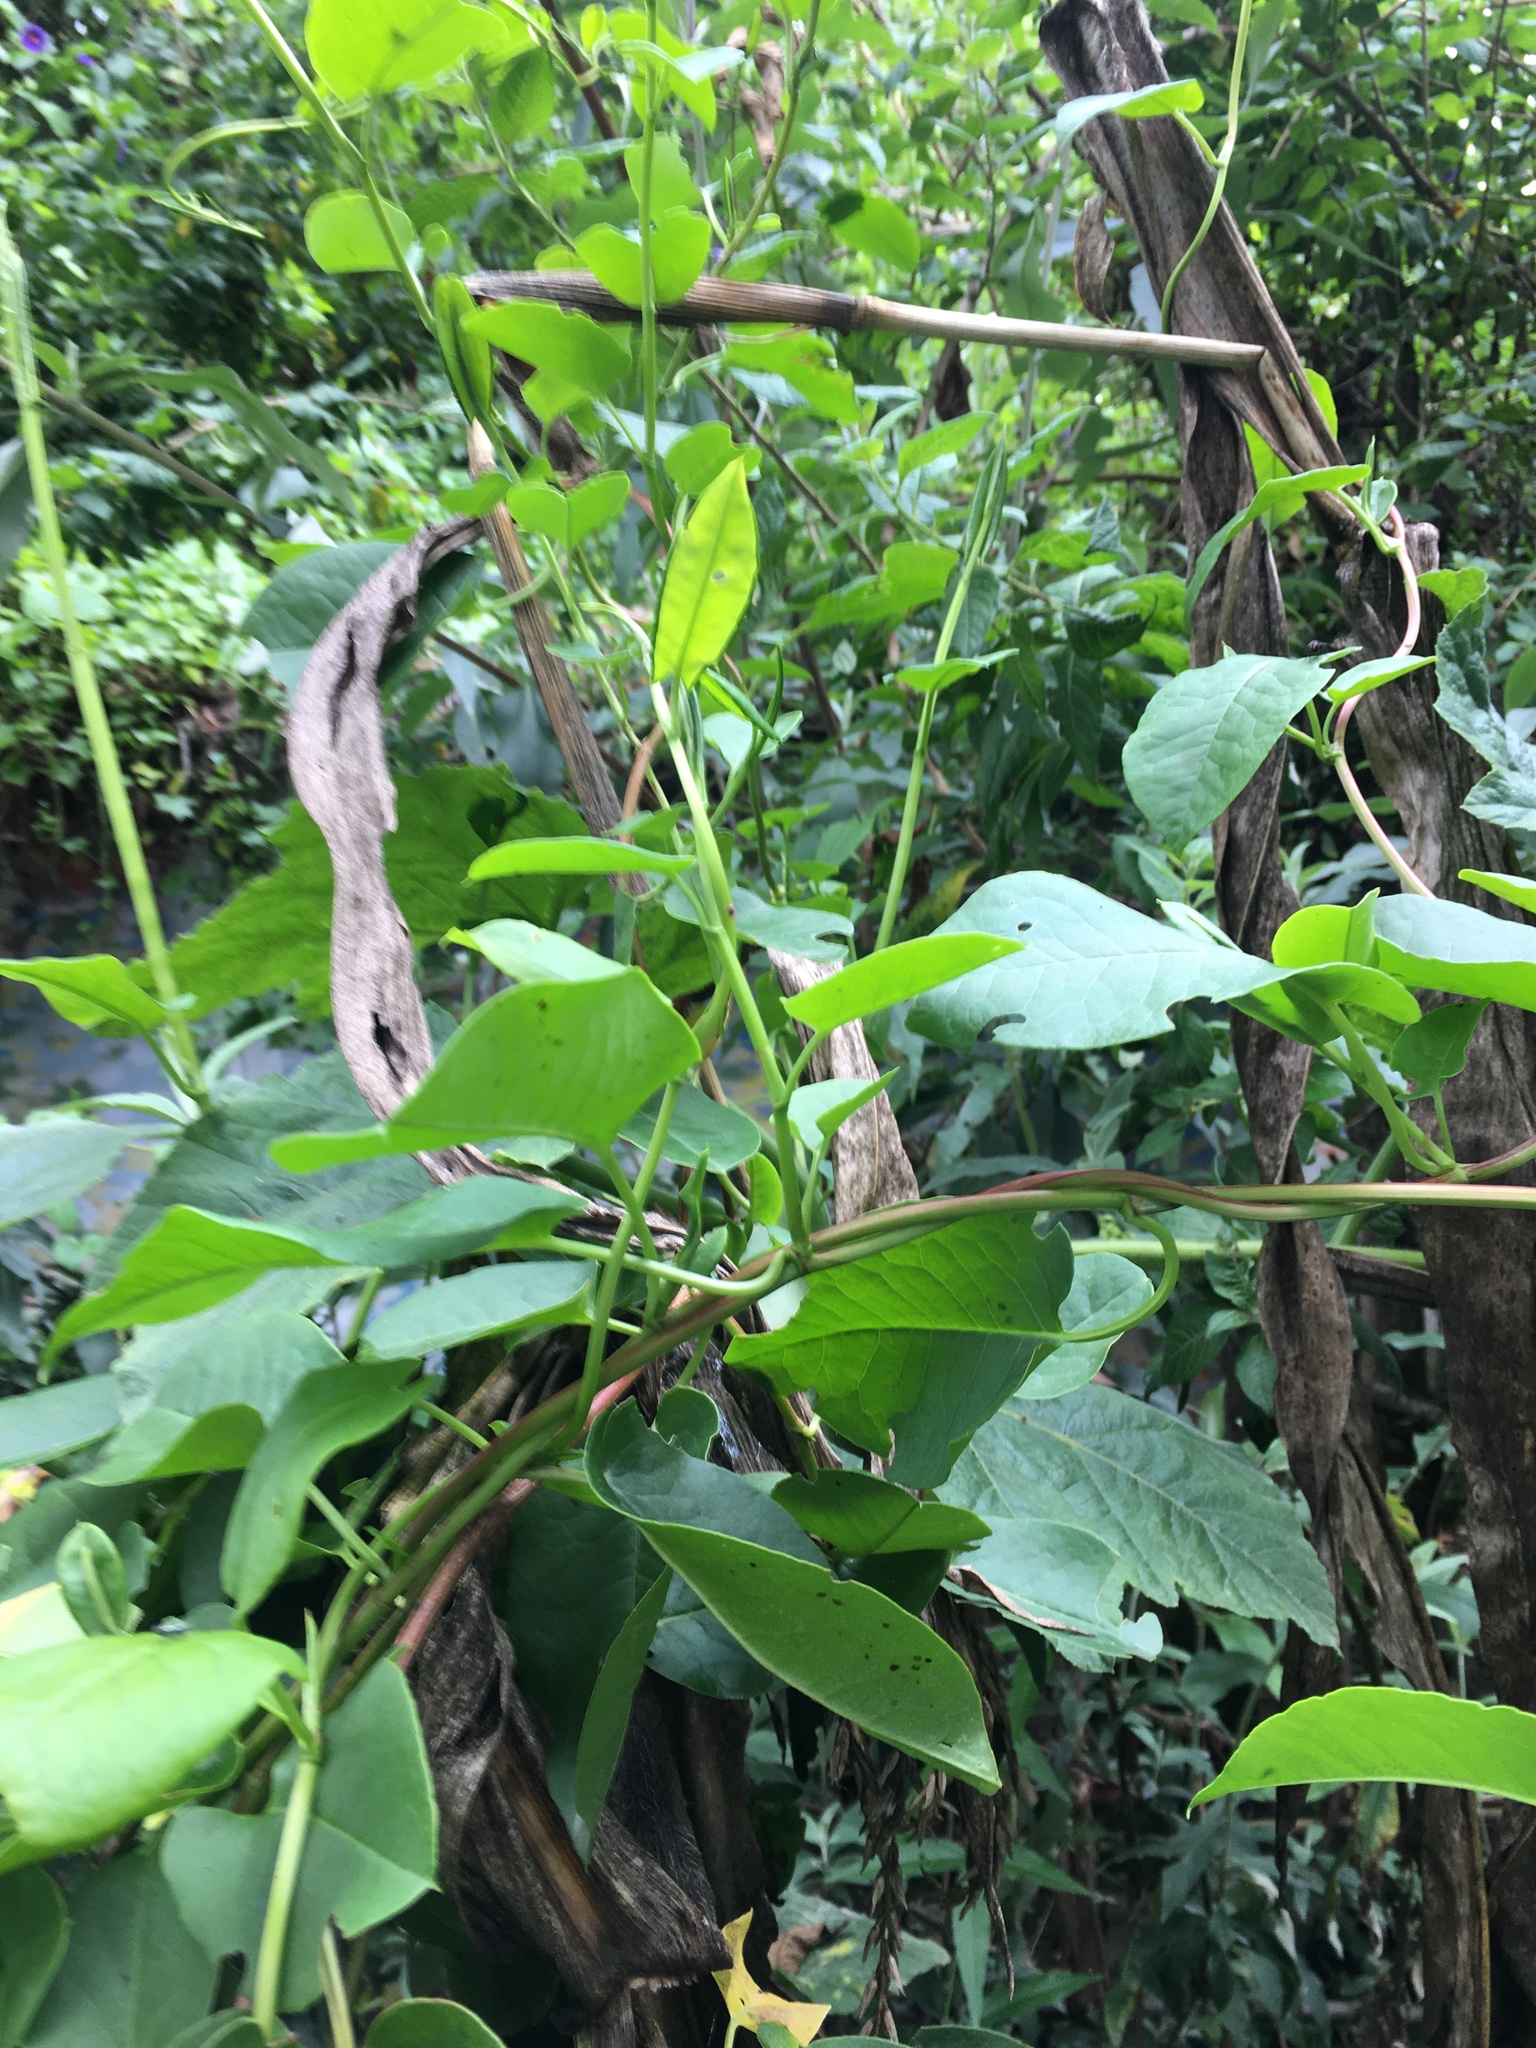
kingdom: Plantae
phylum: Tracheophyta
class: Magnoliopsida
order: Caryophyllales
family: Polygonaceae
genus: Muehlenbeckia
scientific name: Muehlenbeckia tamnifolia
